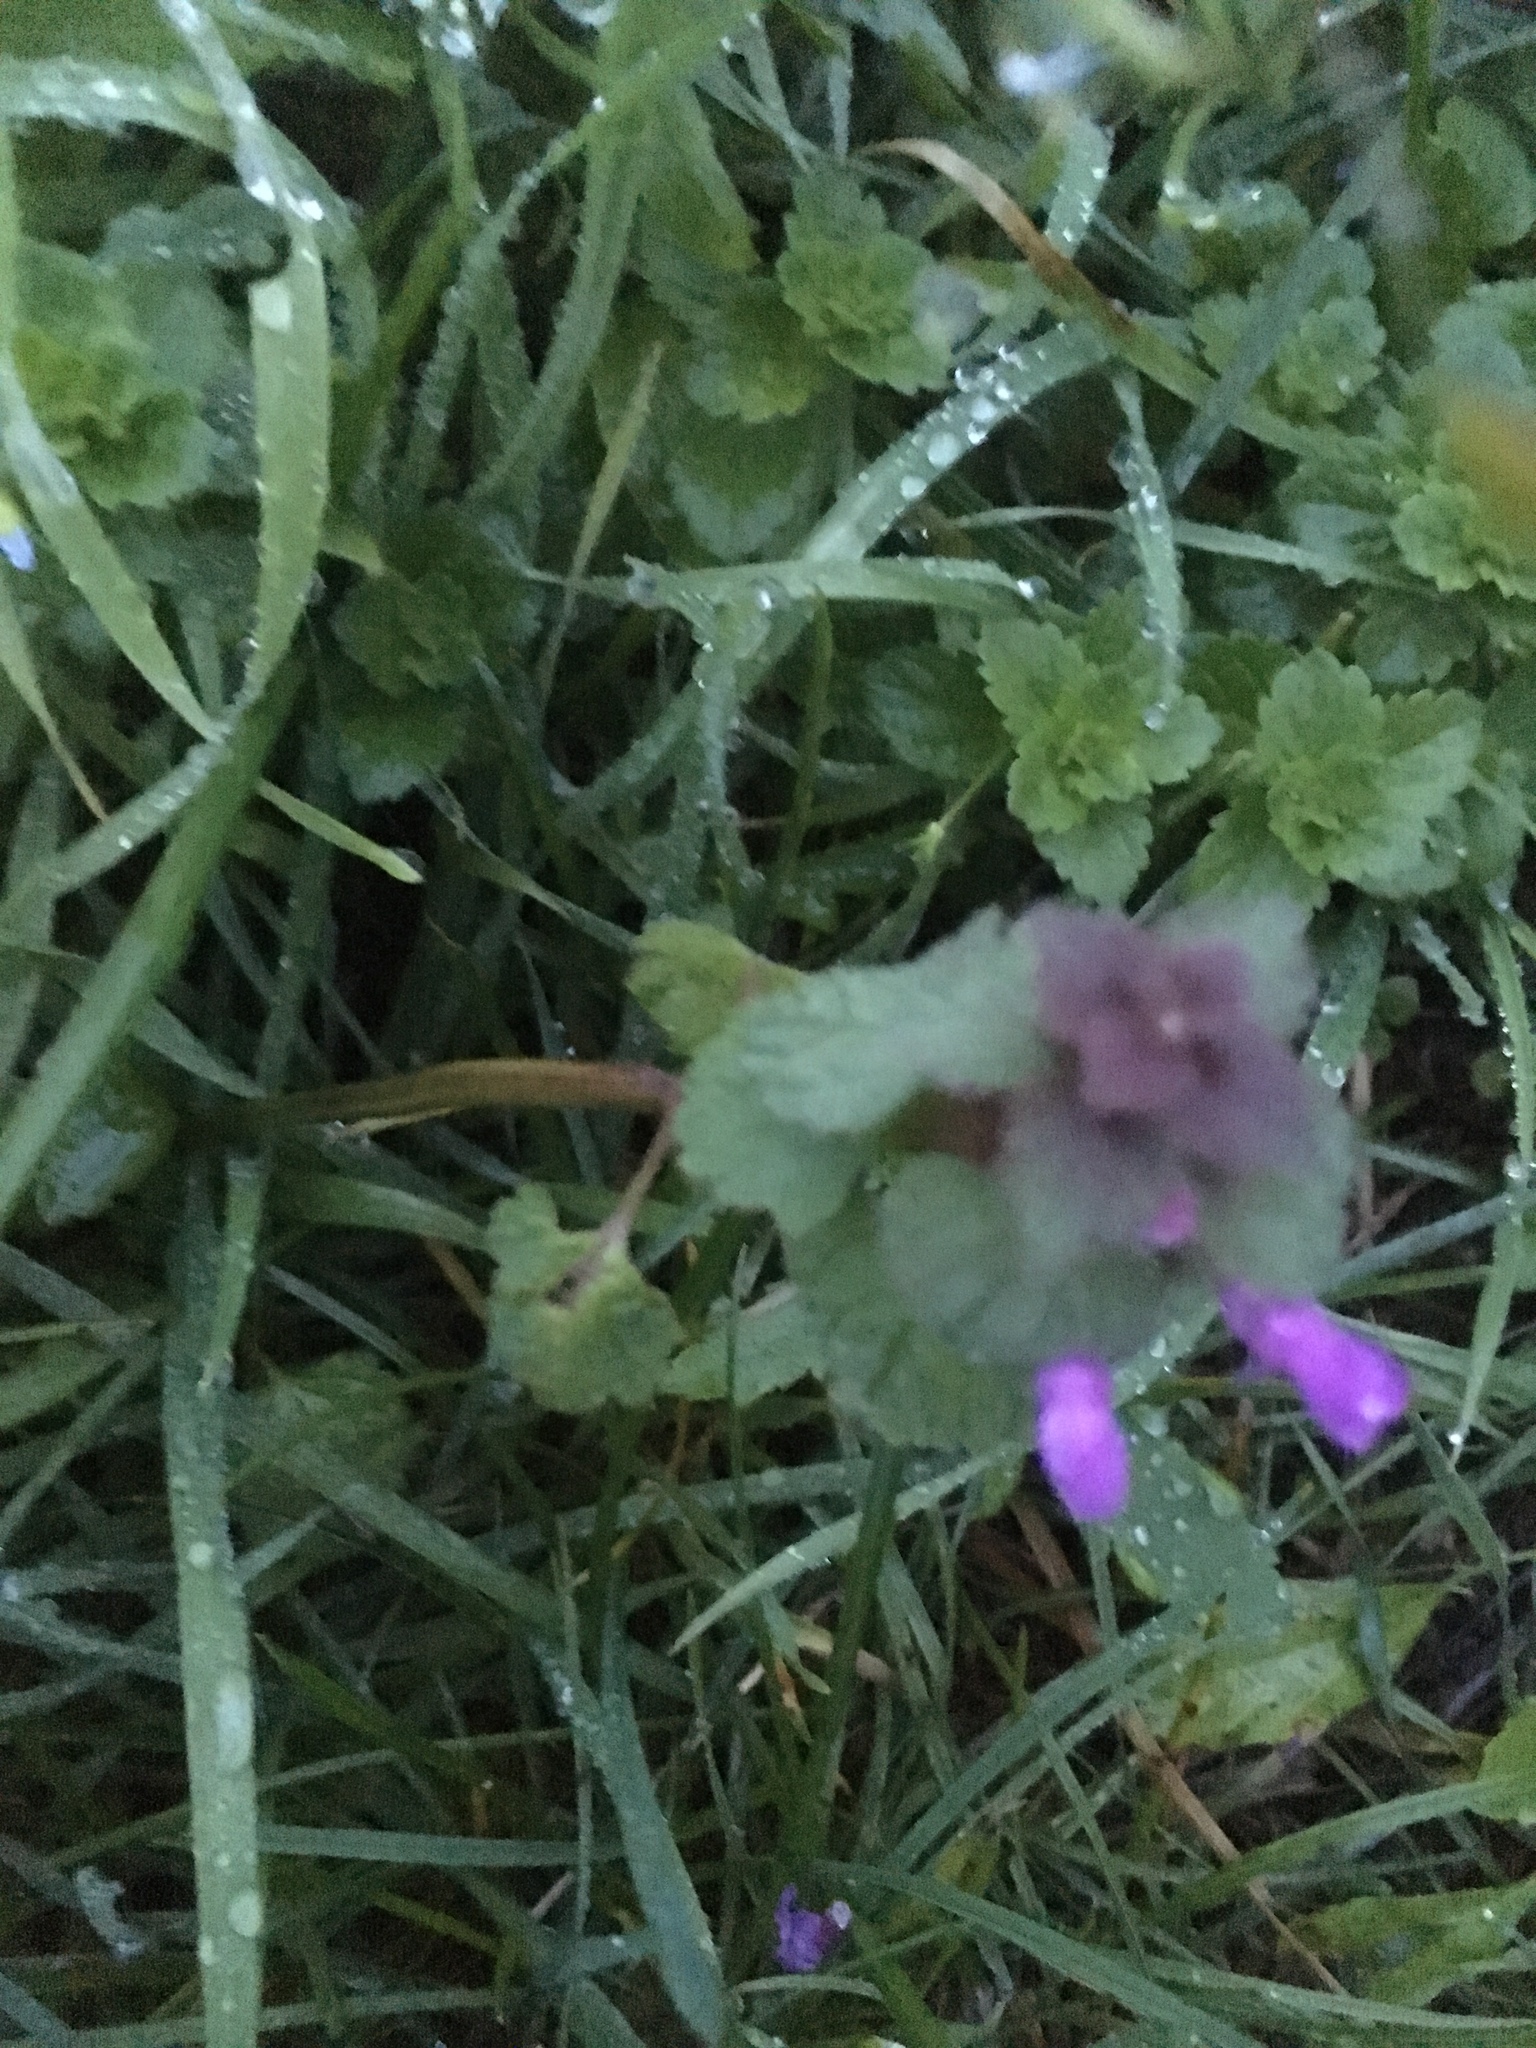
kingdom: Plantae
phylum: Tracheophyta
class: Magnoliopsida
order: Lamiales
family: Lamiaceae
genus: Lamium
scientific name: Lamium purpureum
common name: Red dead-nettle
